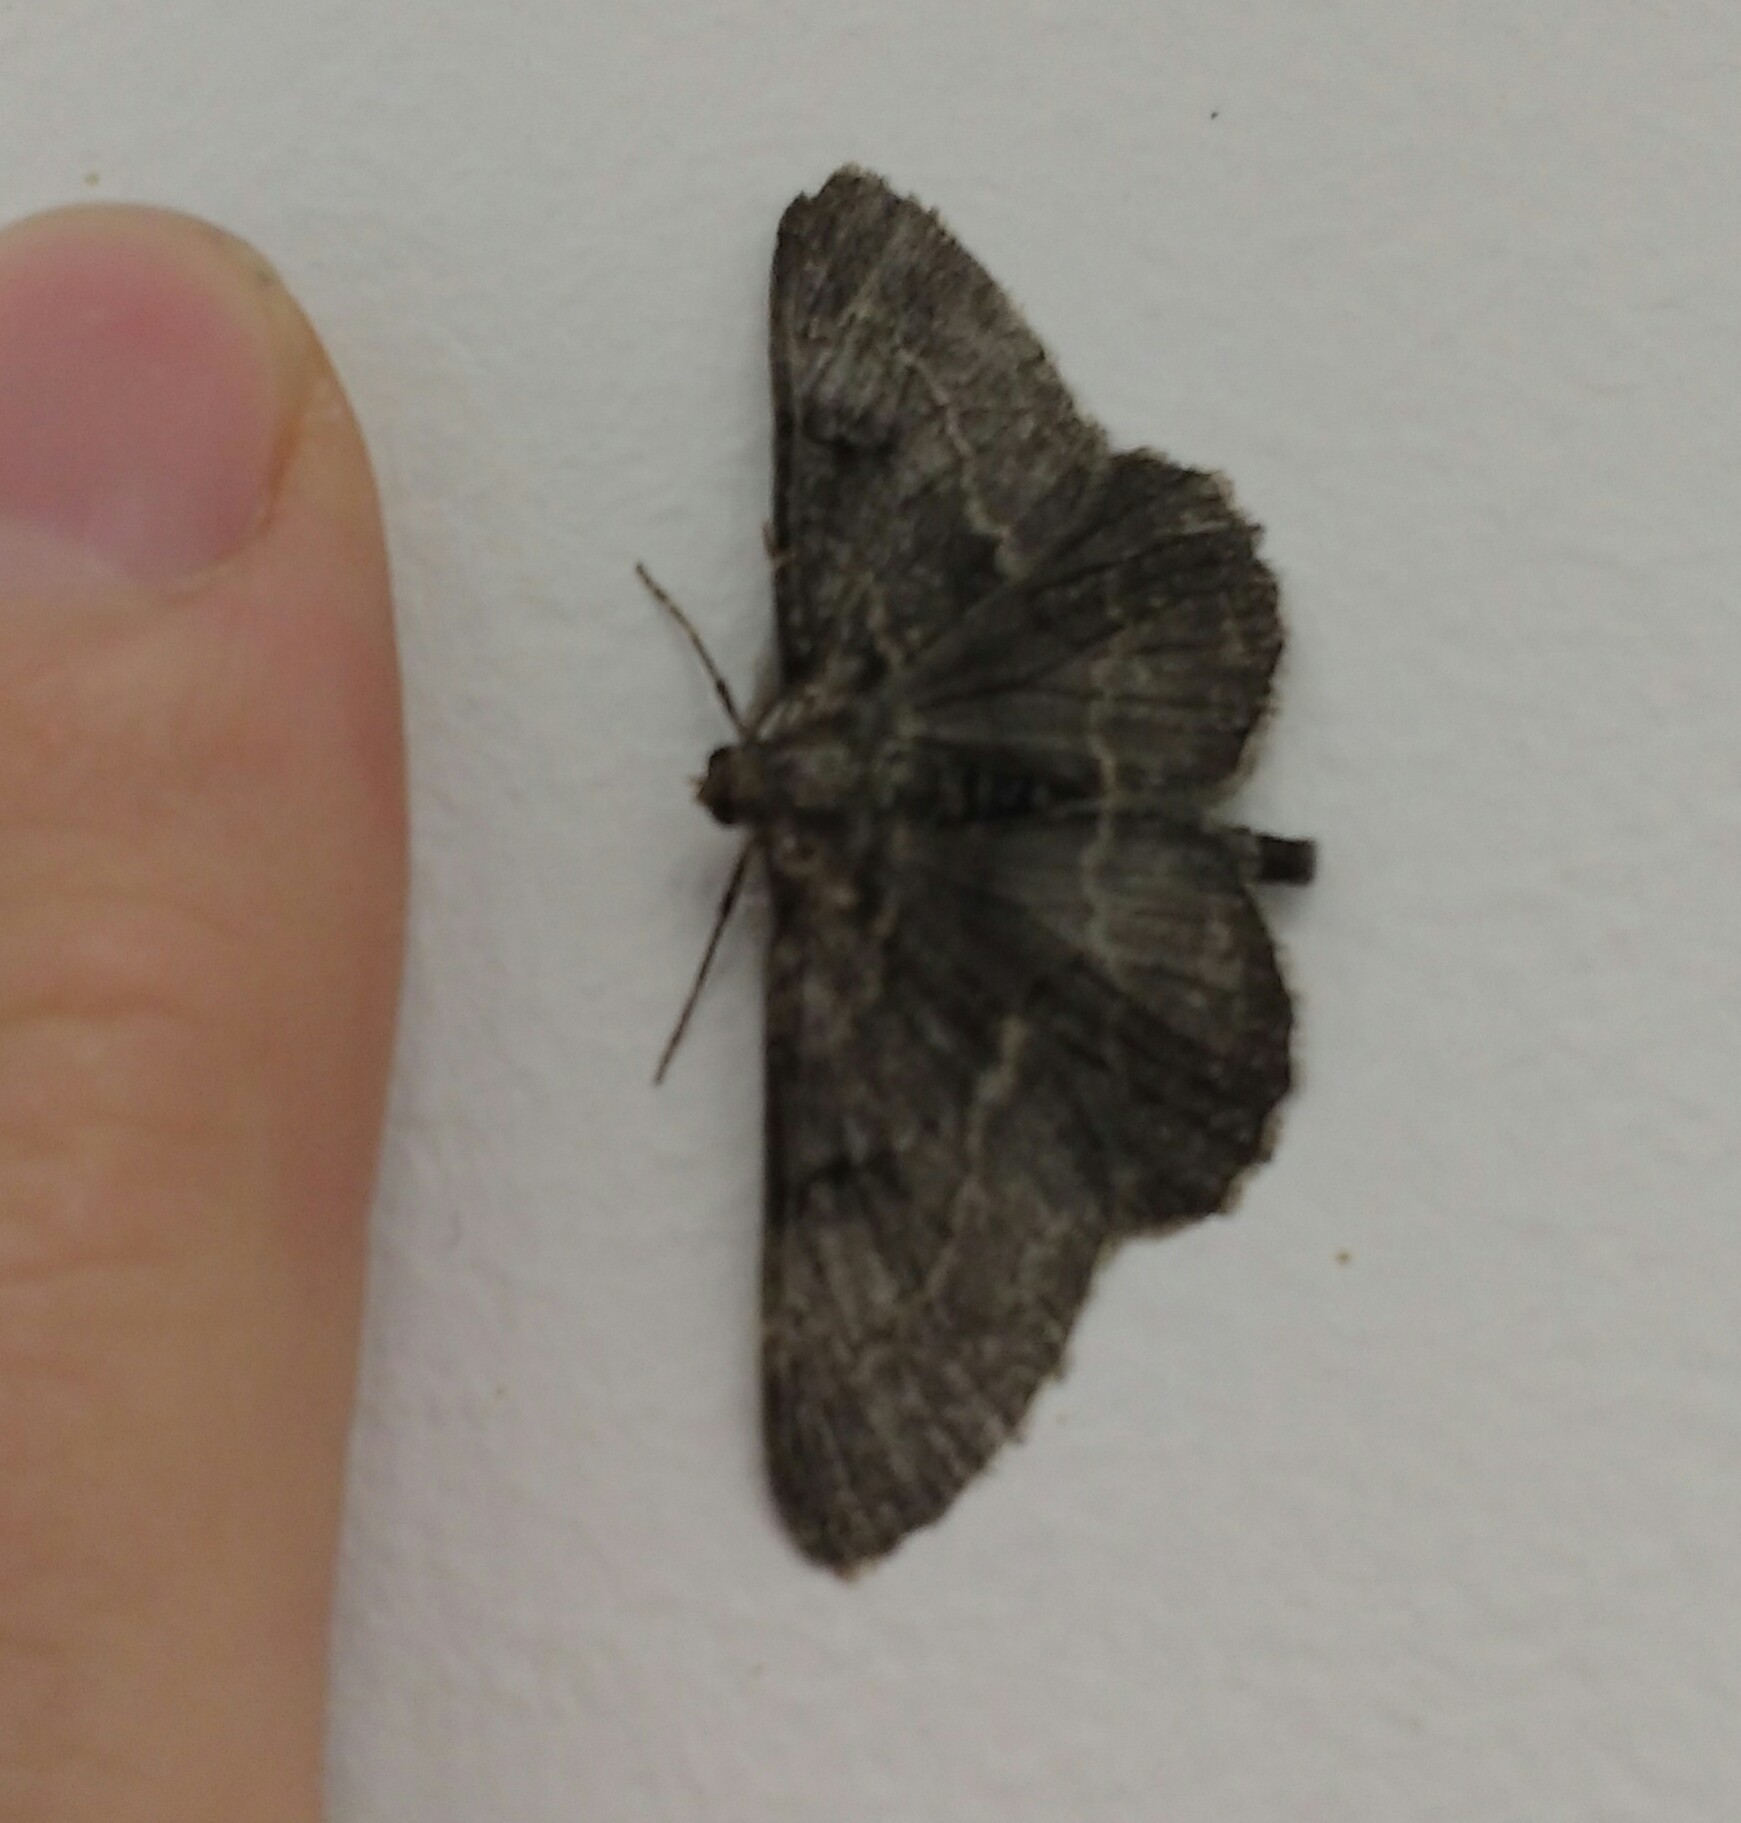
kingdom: Animalia
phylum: Arthropoda
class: Insecta
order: Lepidoptera
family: Geometridae
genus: Peribatodes
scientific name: Peribatodes rhomboidaria
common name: Willow beauty
